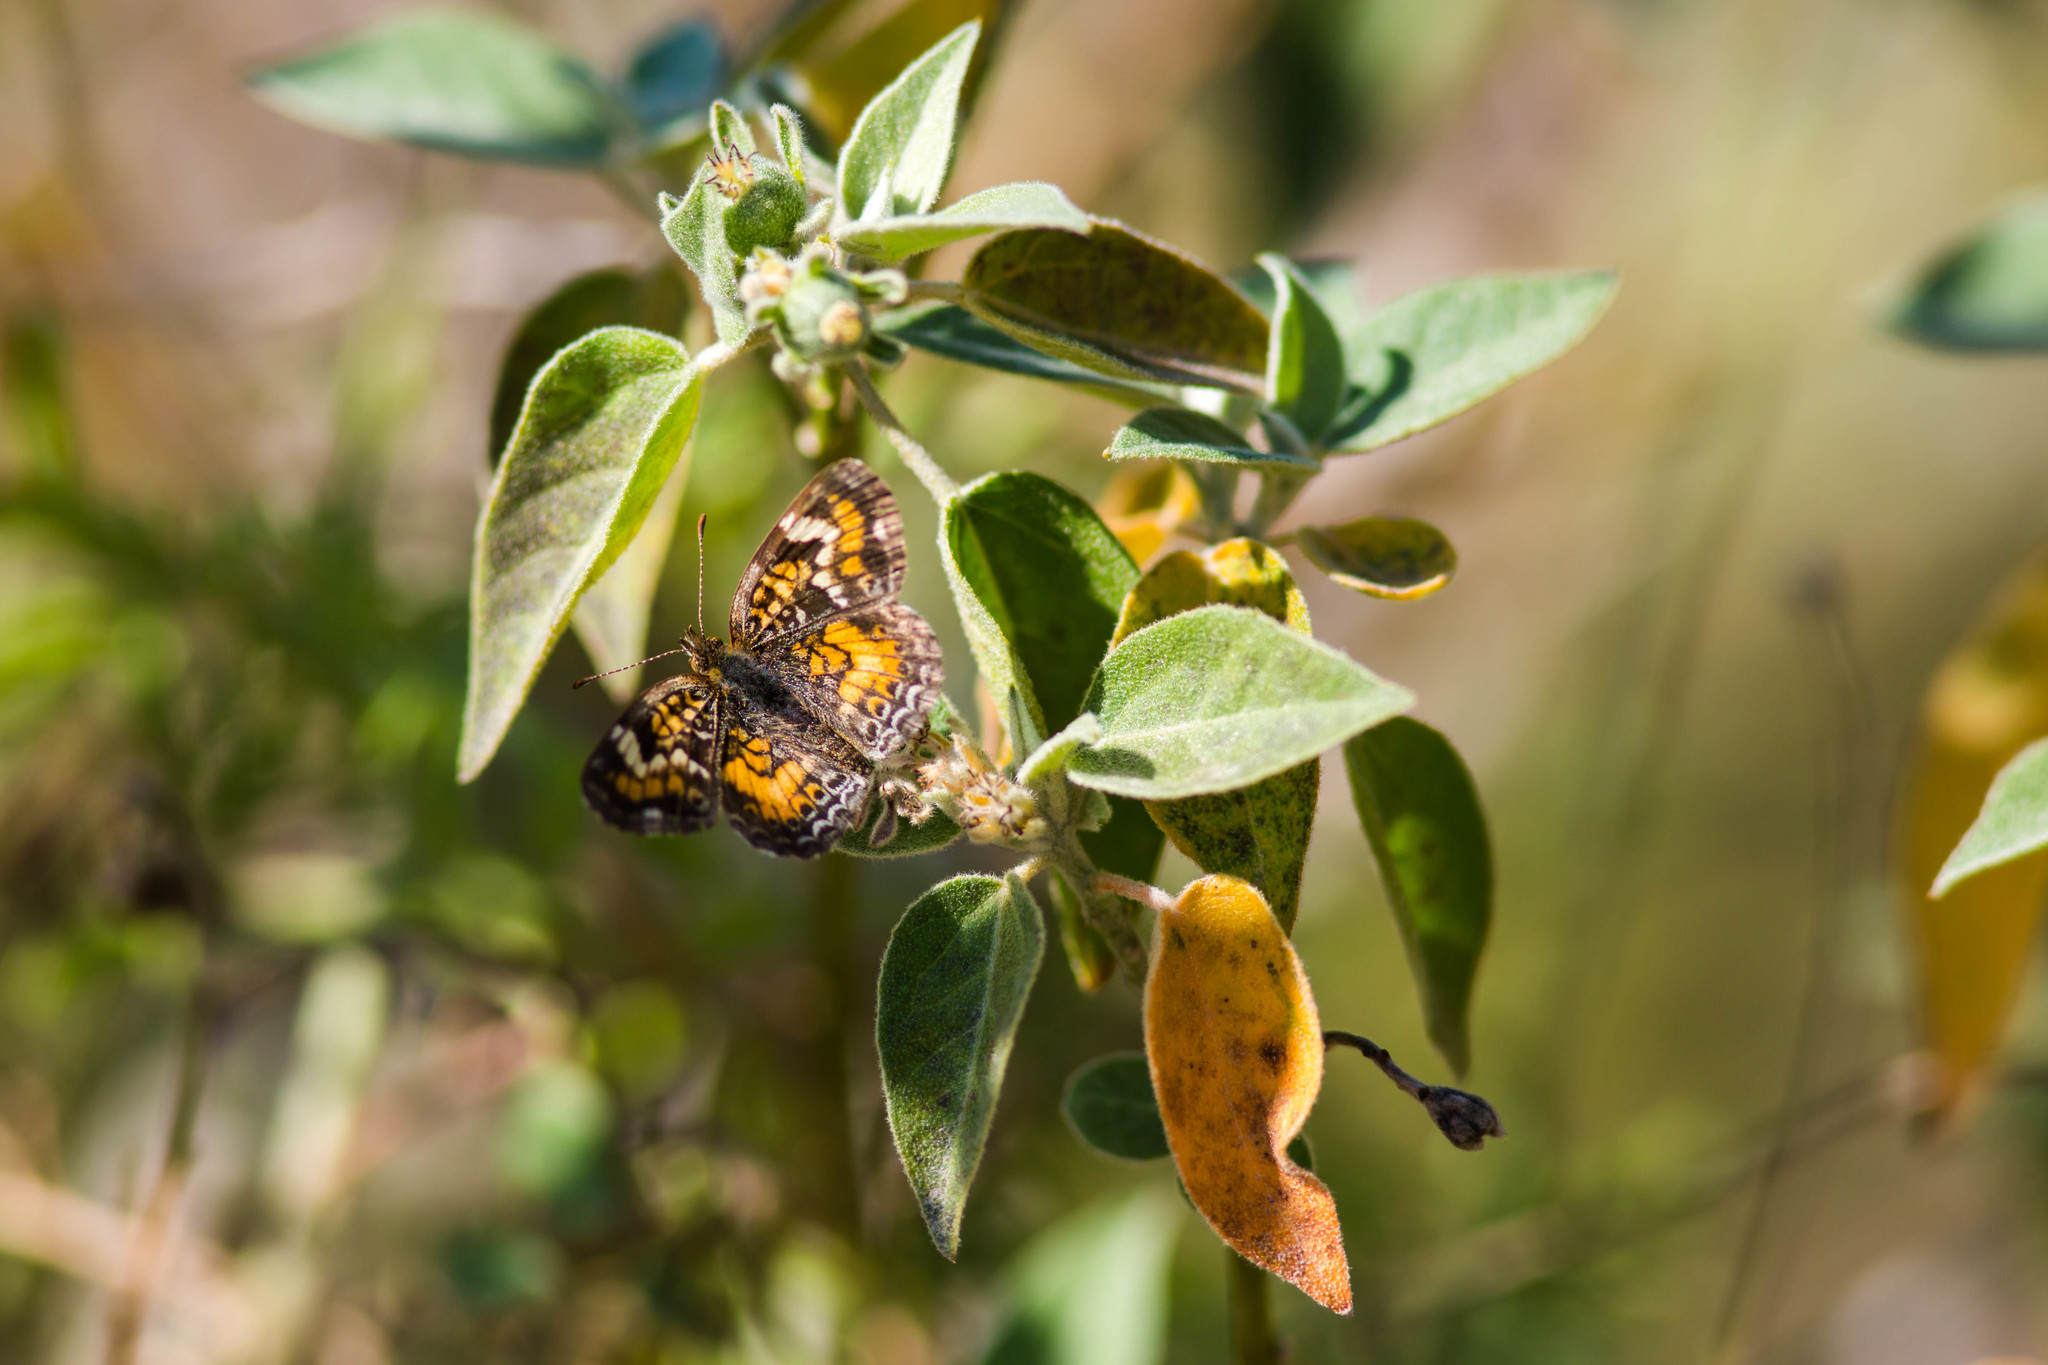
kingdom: Animalia
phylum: Arthropoda
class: Insecta
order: Lepidoptera
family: Nymphalidae
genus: Phyciodes
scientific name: Phyciodes phaon
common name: Phaon crescent
